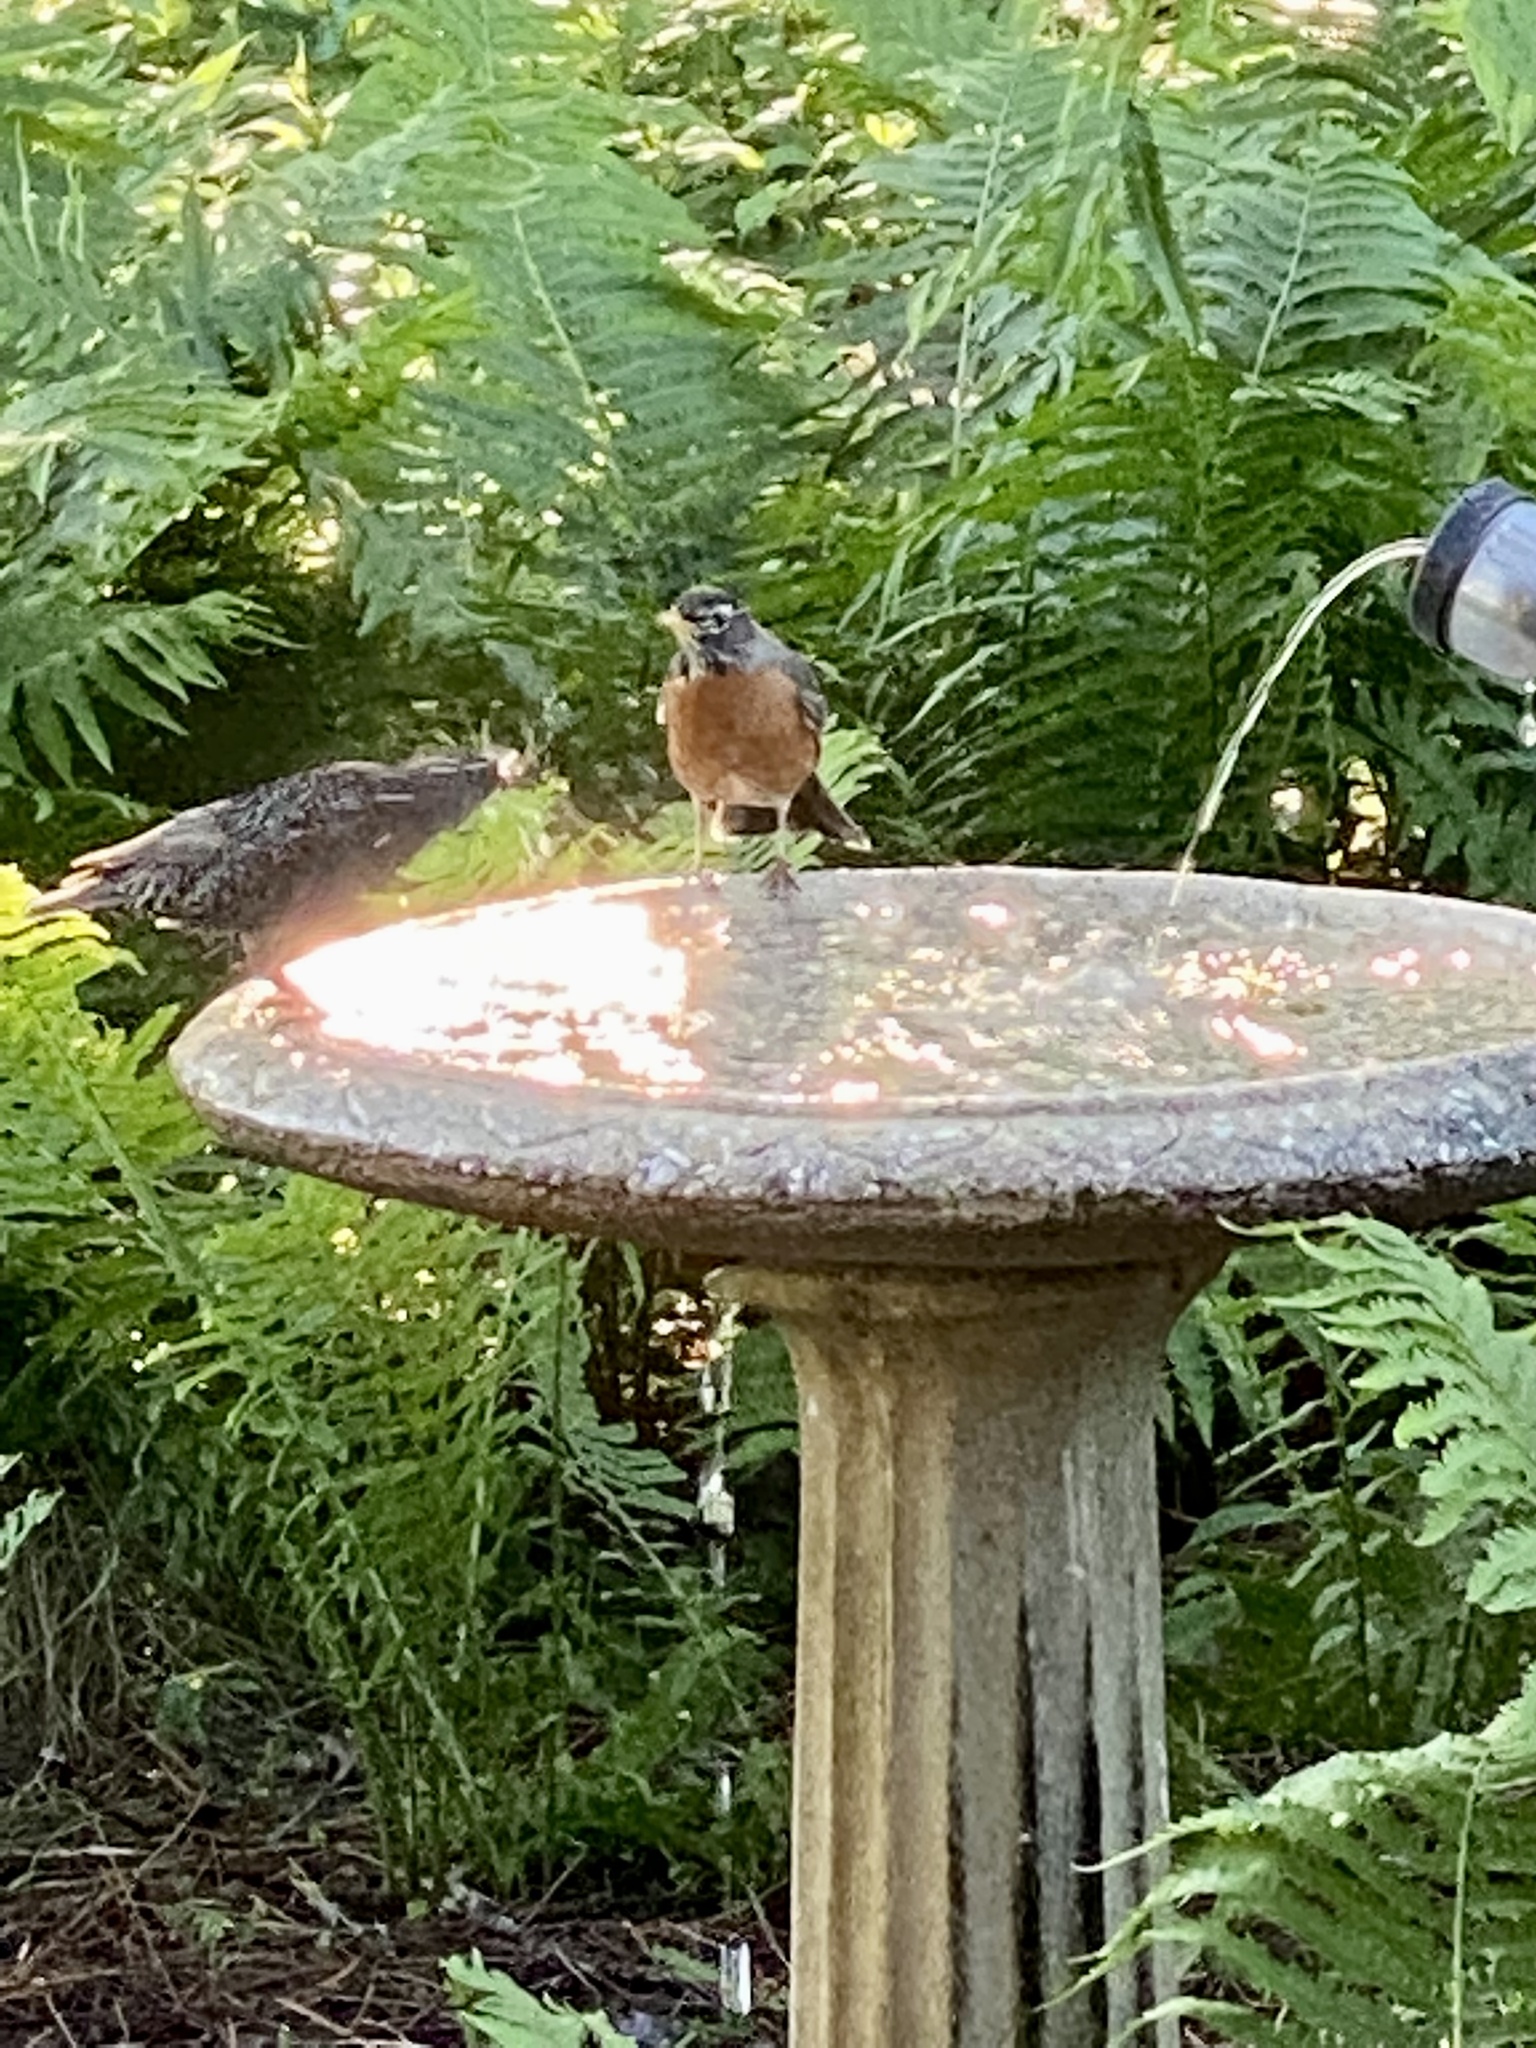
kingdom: Animalia
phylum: Chordata
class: Aves
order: Passeriformes
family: Turdidae
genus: Turdus
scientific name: Turdus migratorius
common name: American robin
